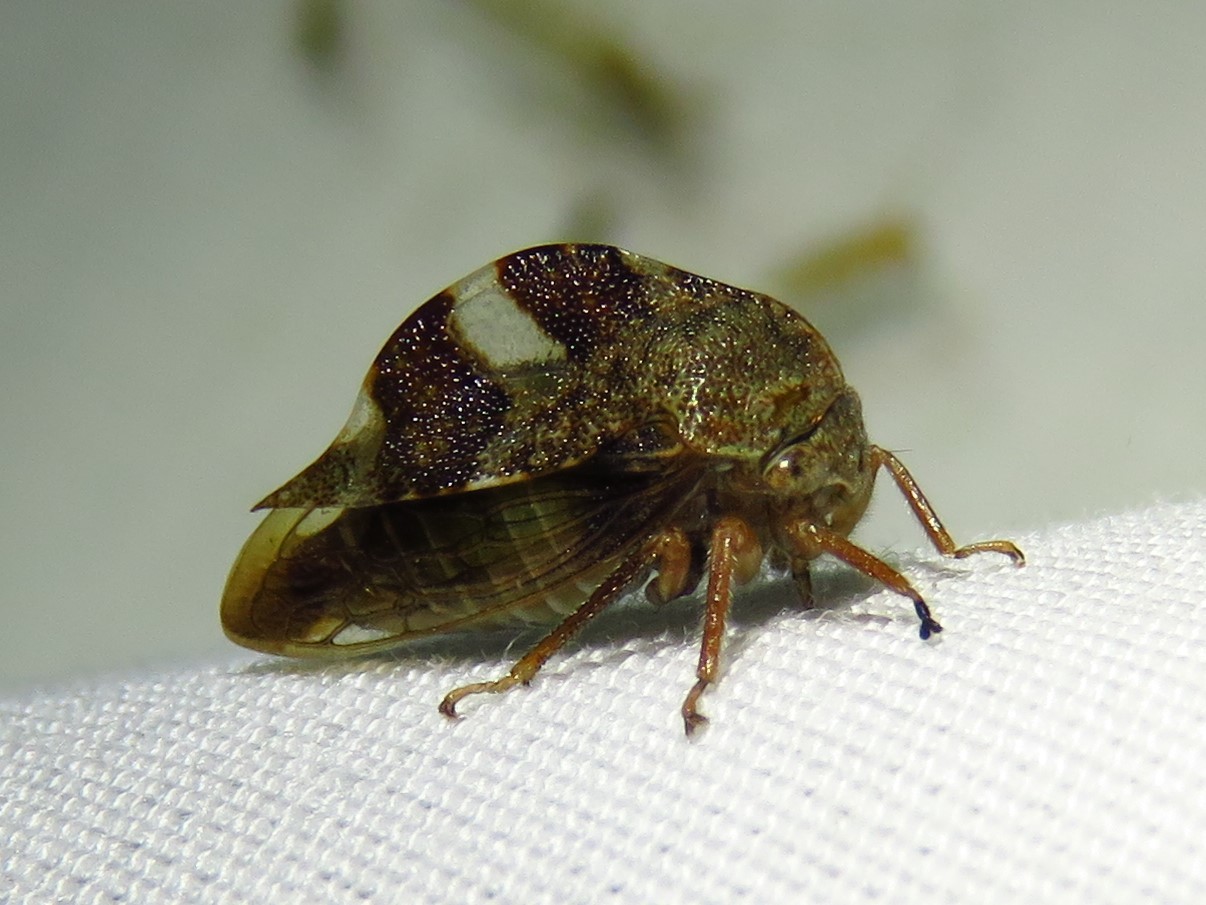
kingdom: Animalia
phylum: Arthropoda
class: Insecta
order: Hemiptera
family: Membracidae
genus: Cyrtolobus
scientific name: Cyrtolobus tuberosa
